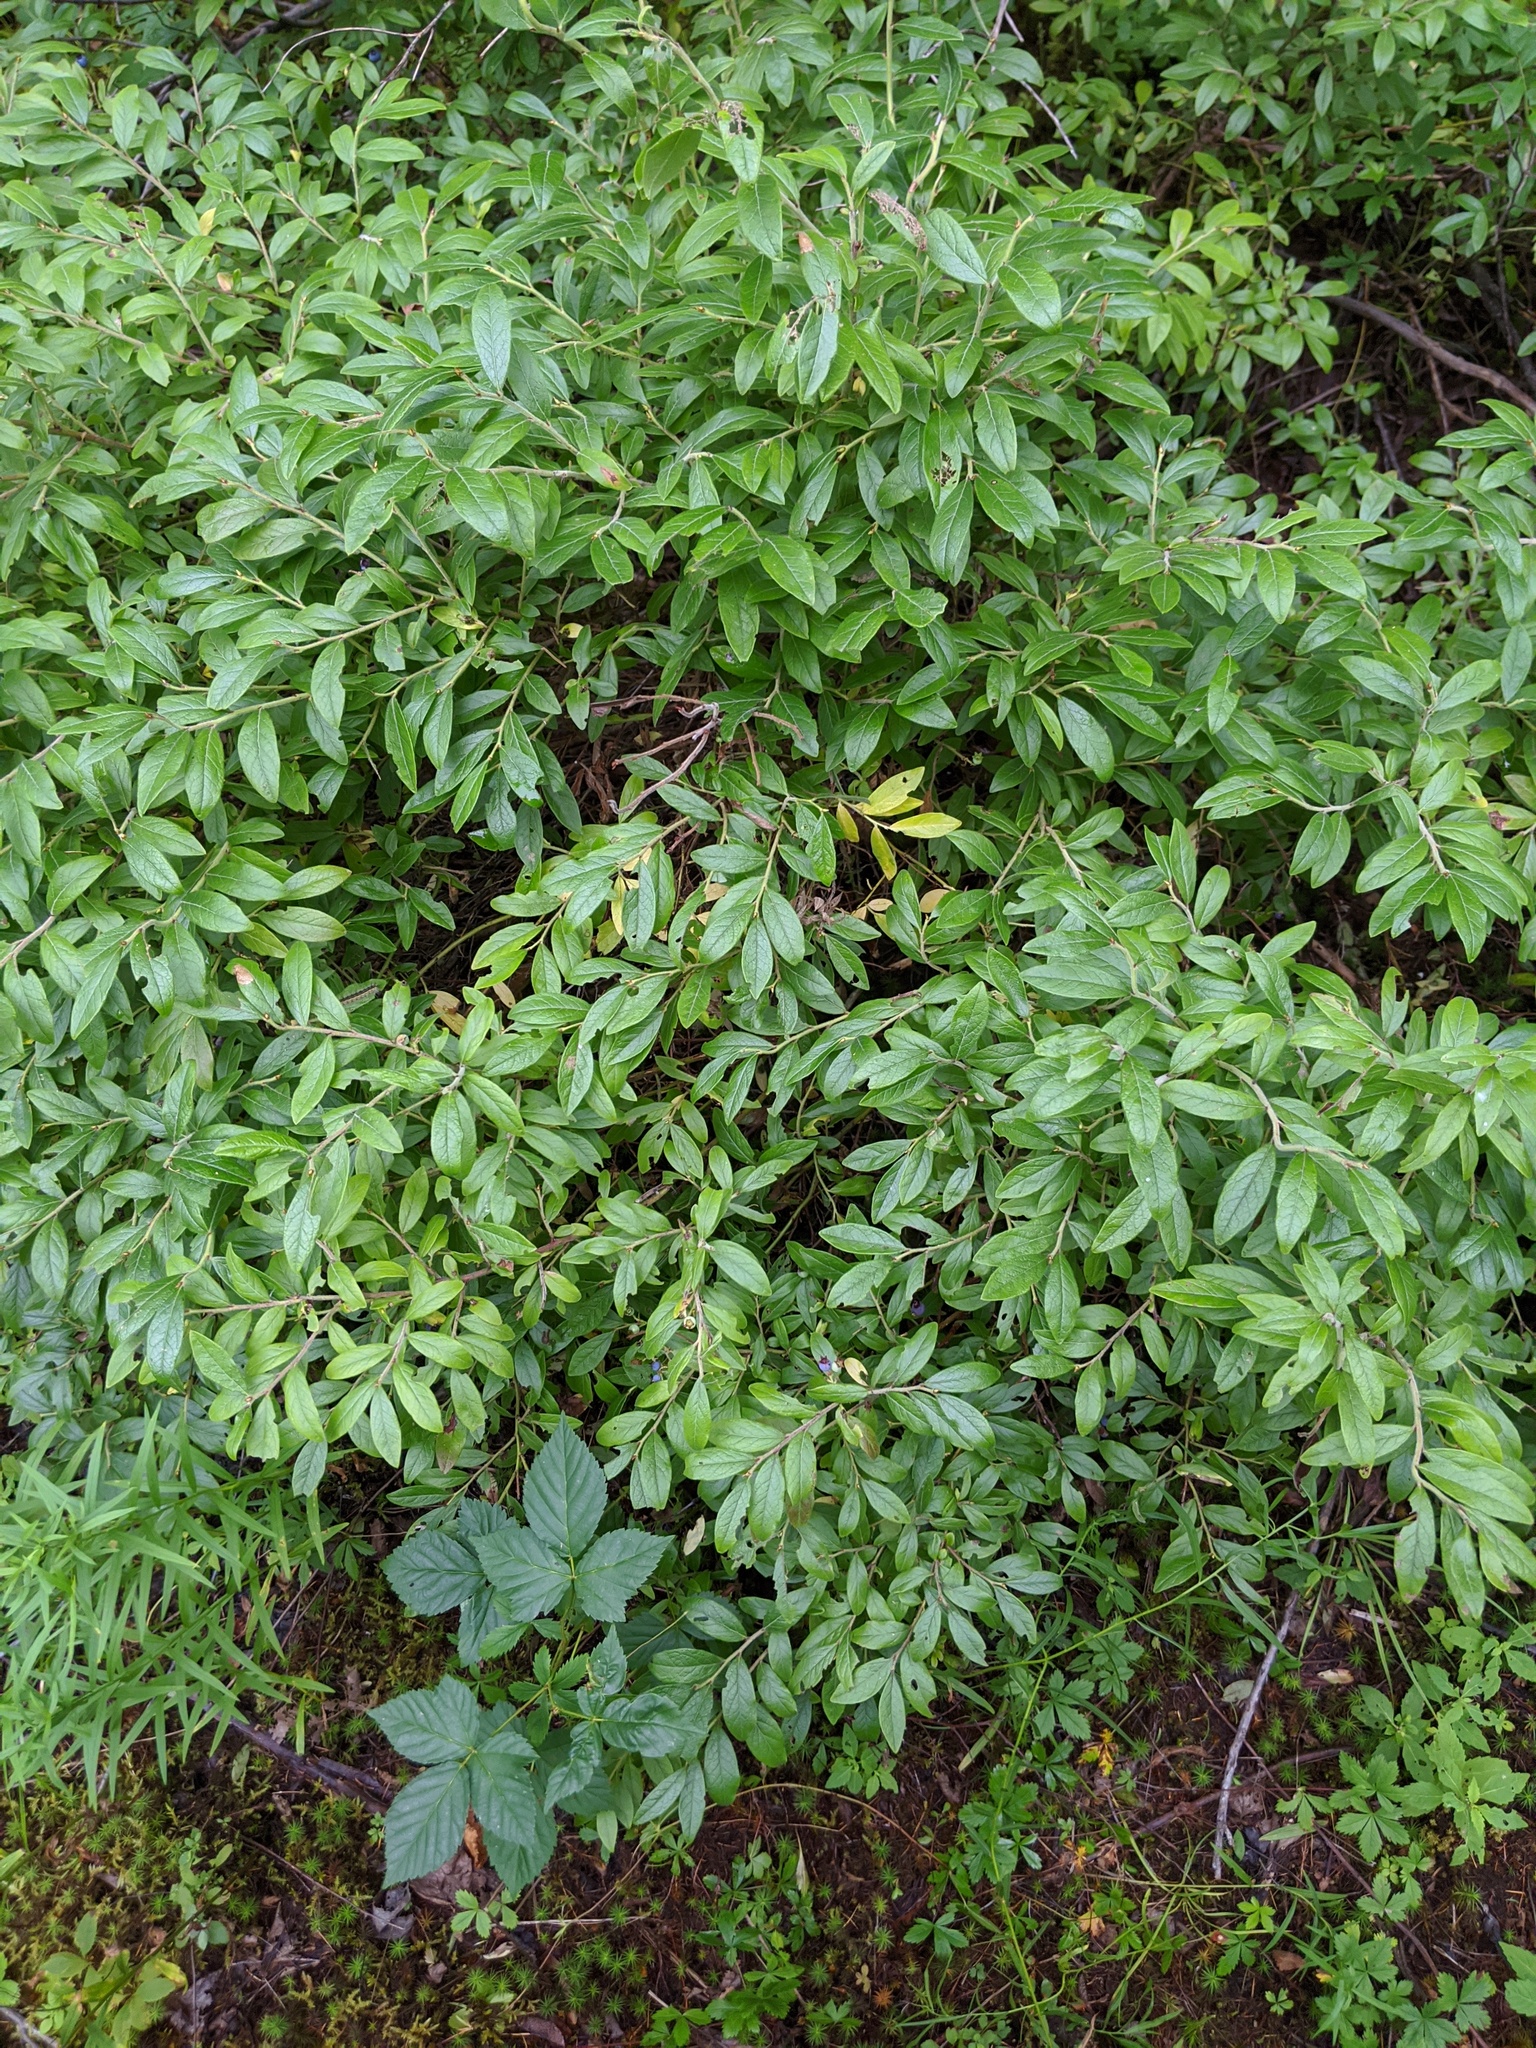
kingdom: Plantae
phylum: Tracheophyta
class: Magnoliopsida
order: Ericales
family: Ericaceae
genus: Vaccinium
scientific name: Vaccinium myrtilloides
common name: Canada blueberry
